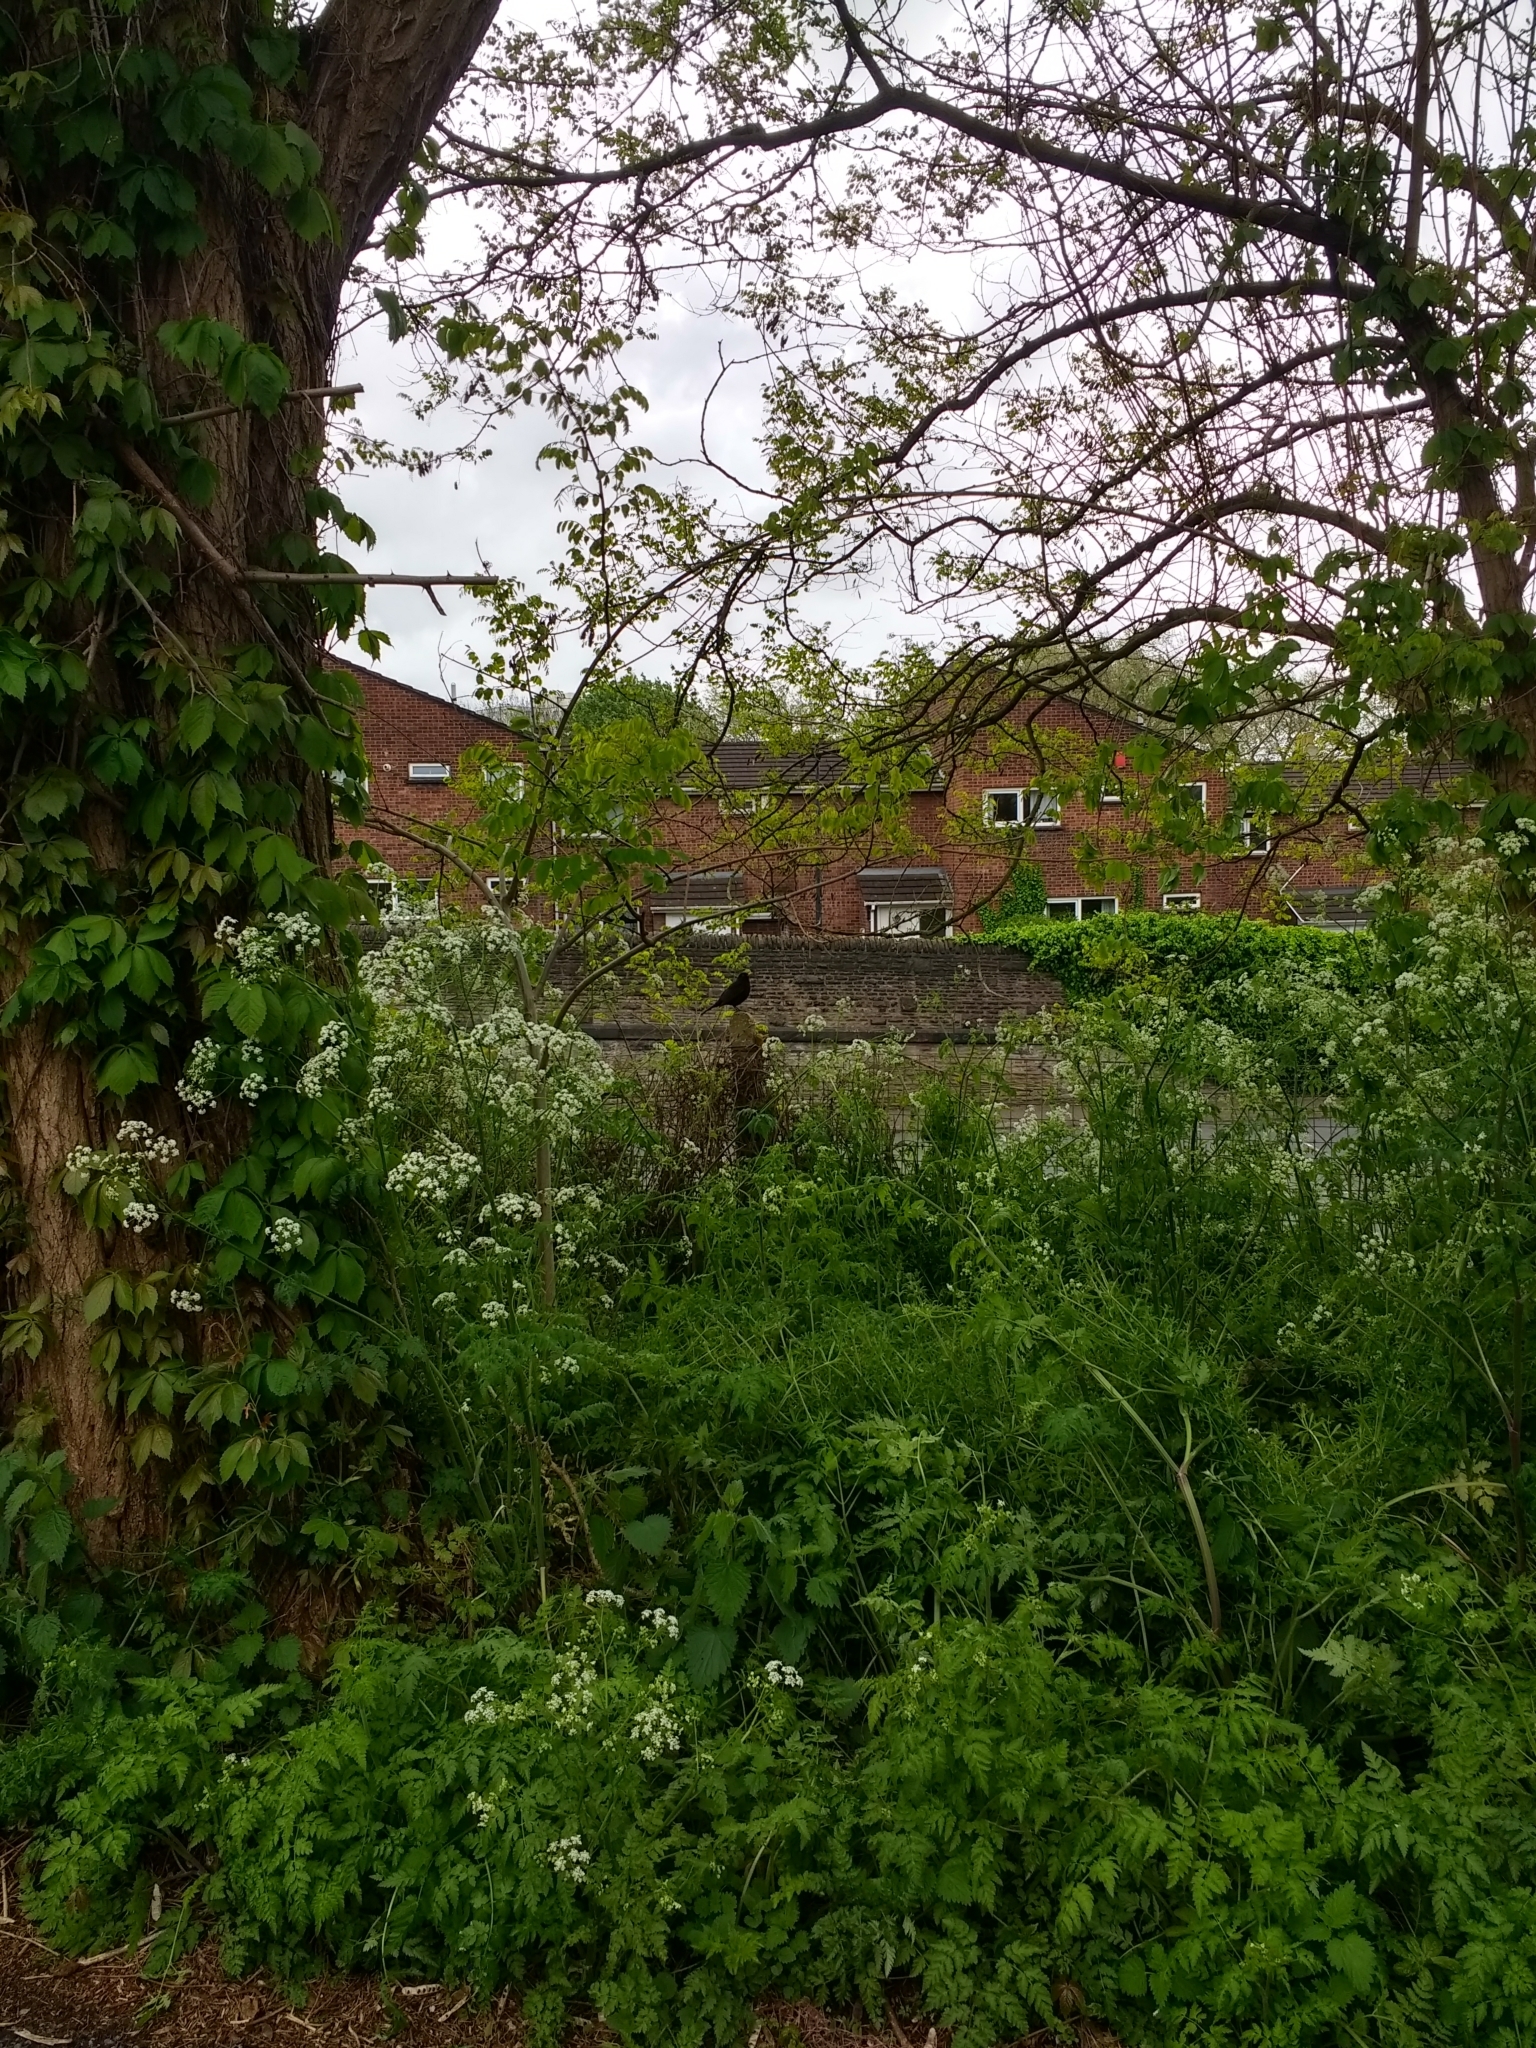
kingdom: Plantae
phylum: Tracheophyta
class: Magnoliopsida
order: Apiales
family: Apiaceae
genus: Anthriscus
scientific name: Anthriscus sylvestris
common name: Cow parsley
